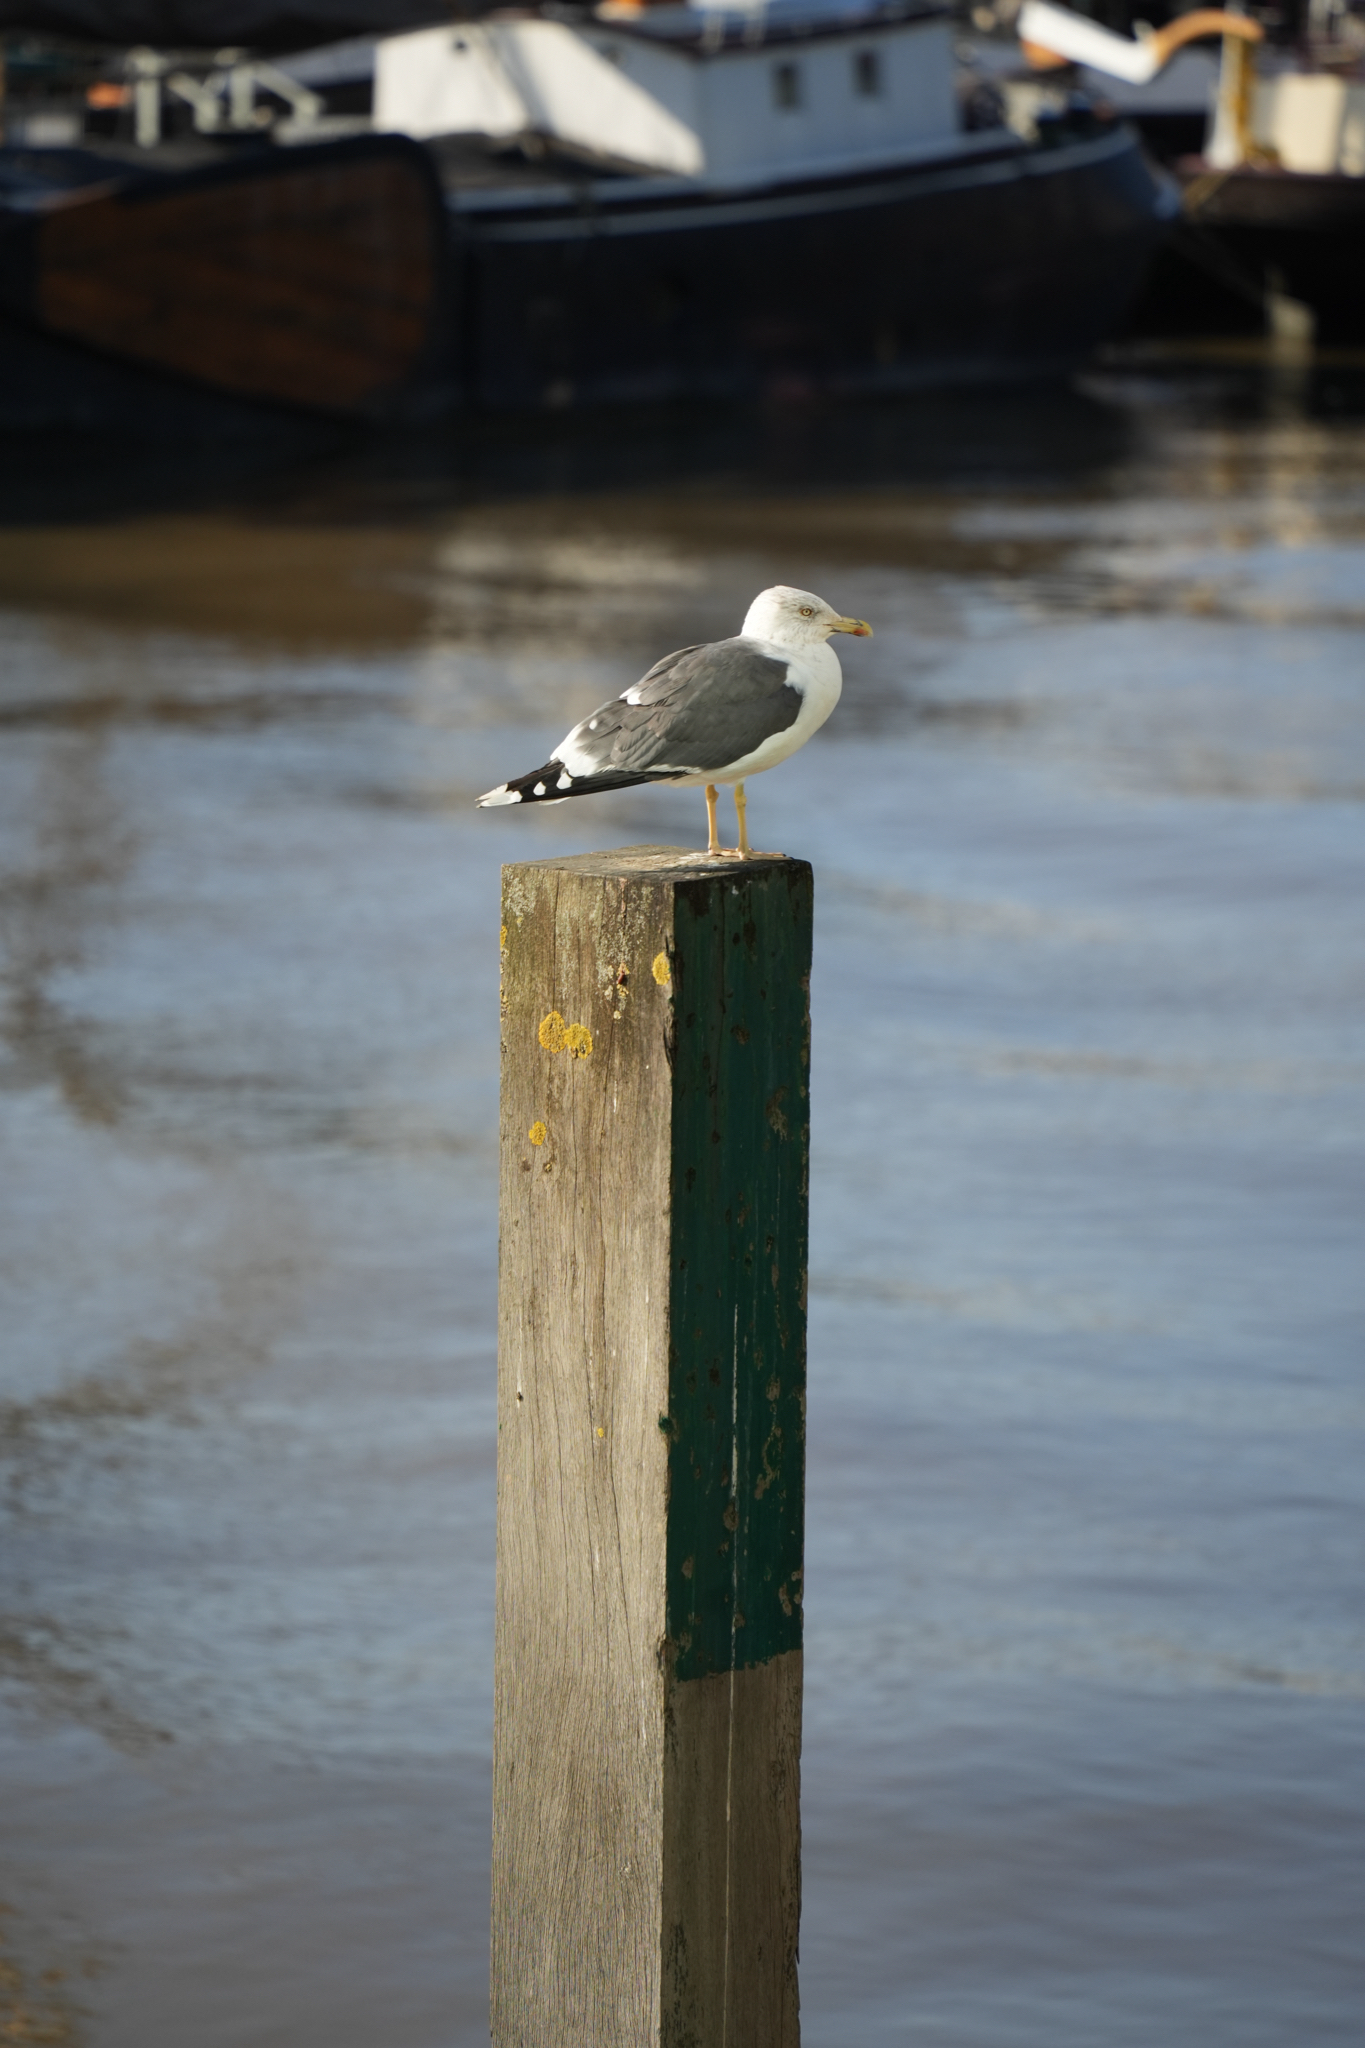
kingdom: Animalia
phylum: Chordata
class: Aves
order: Charadriiformes
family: Laridae
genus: Larus
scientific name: Larus fuscus
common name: Lesser black-backed gull
